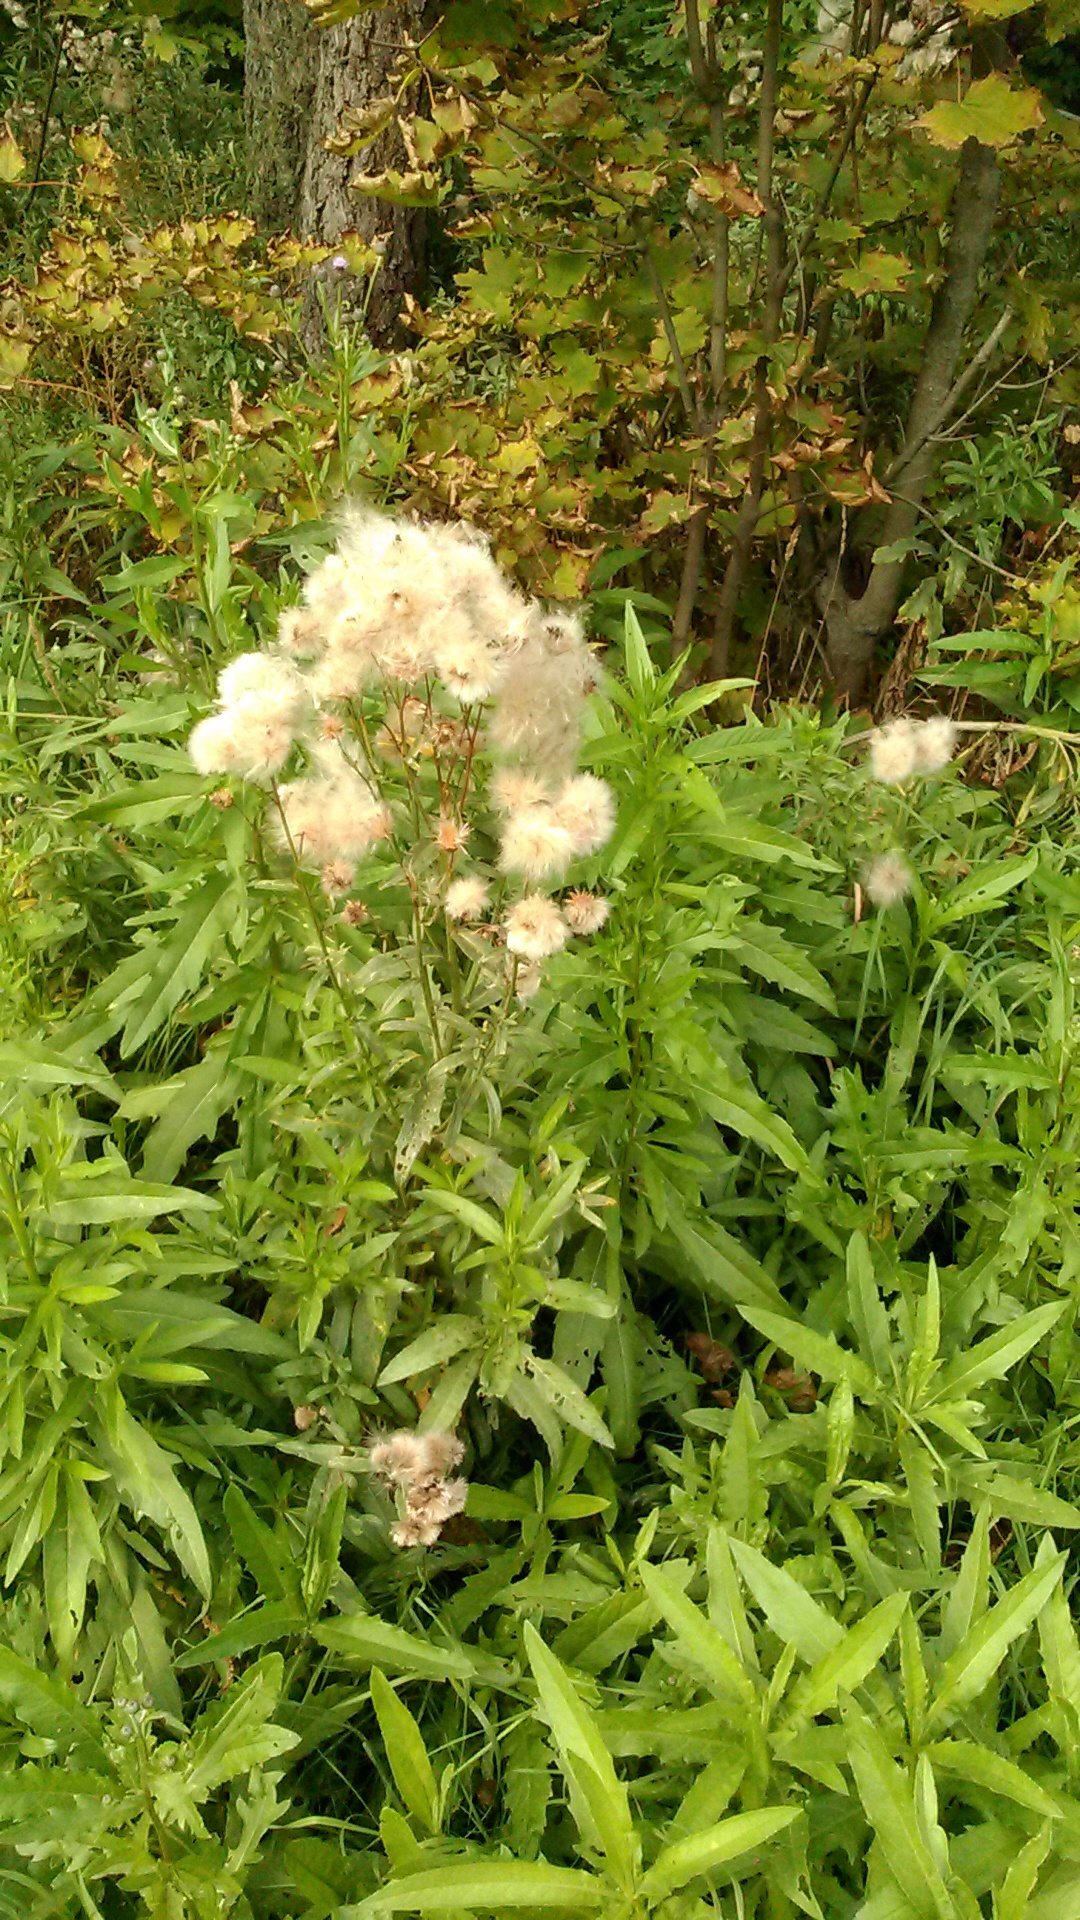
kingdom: Plantae
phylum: Tracheophyta
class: Magnoliopsida
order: Asterales
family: Asteraceae
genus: Cirsium
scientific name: Cirsium arvense
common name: Creeping thistle
